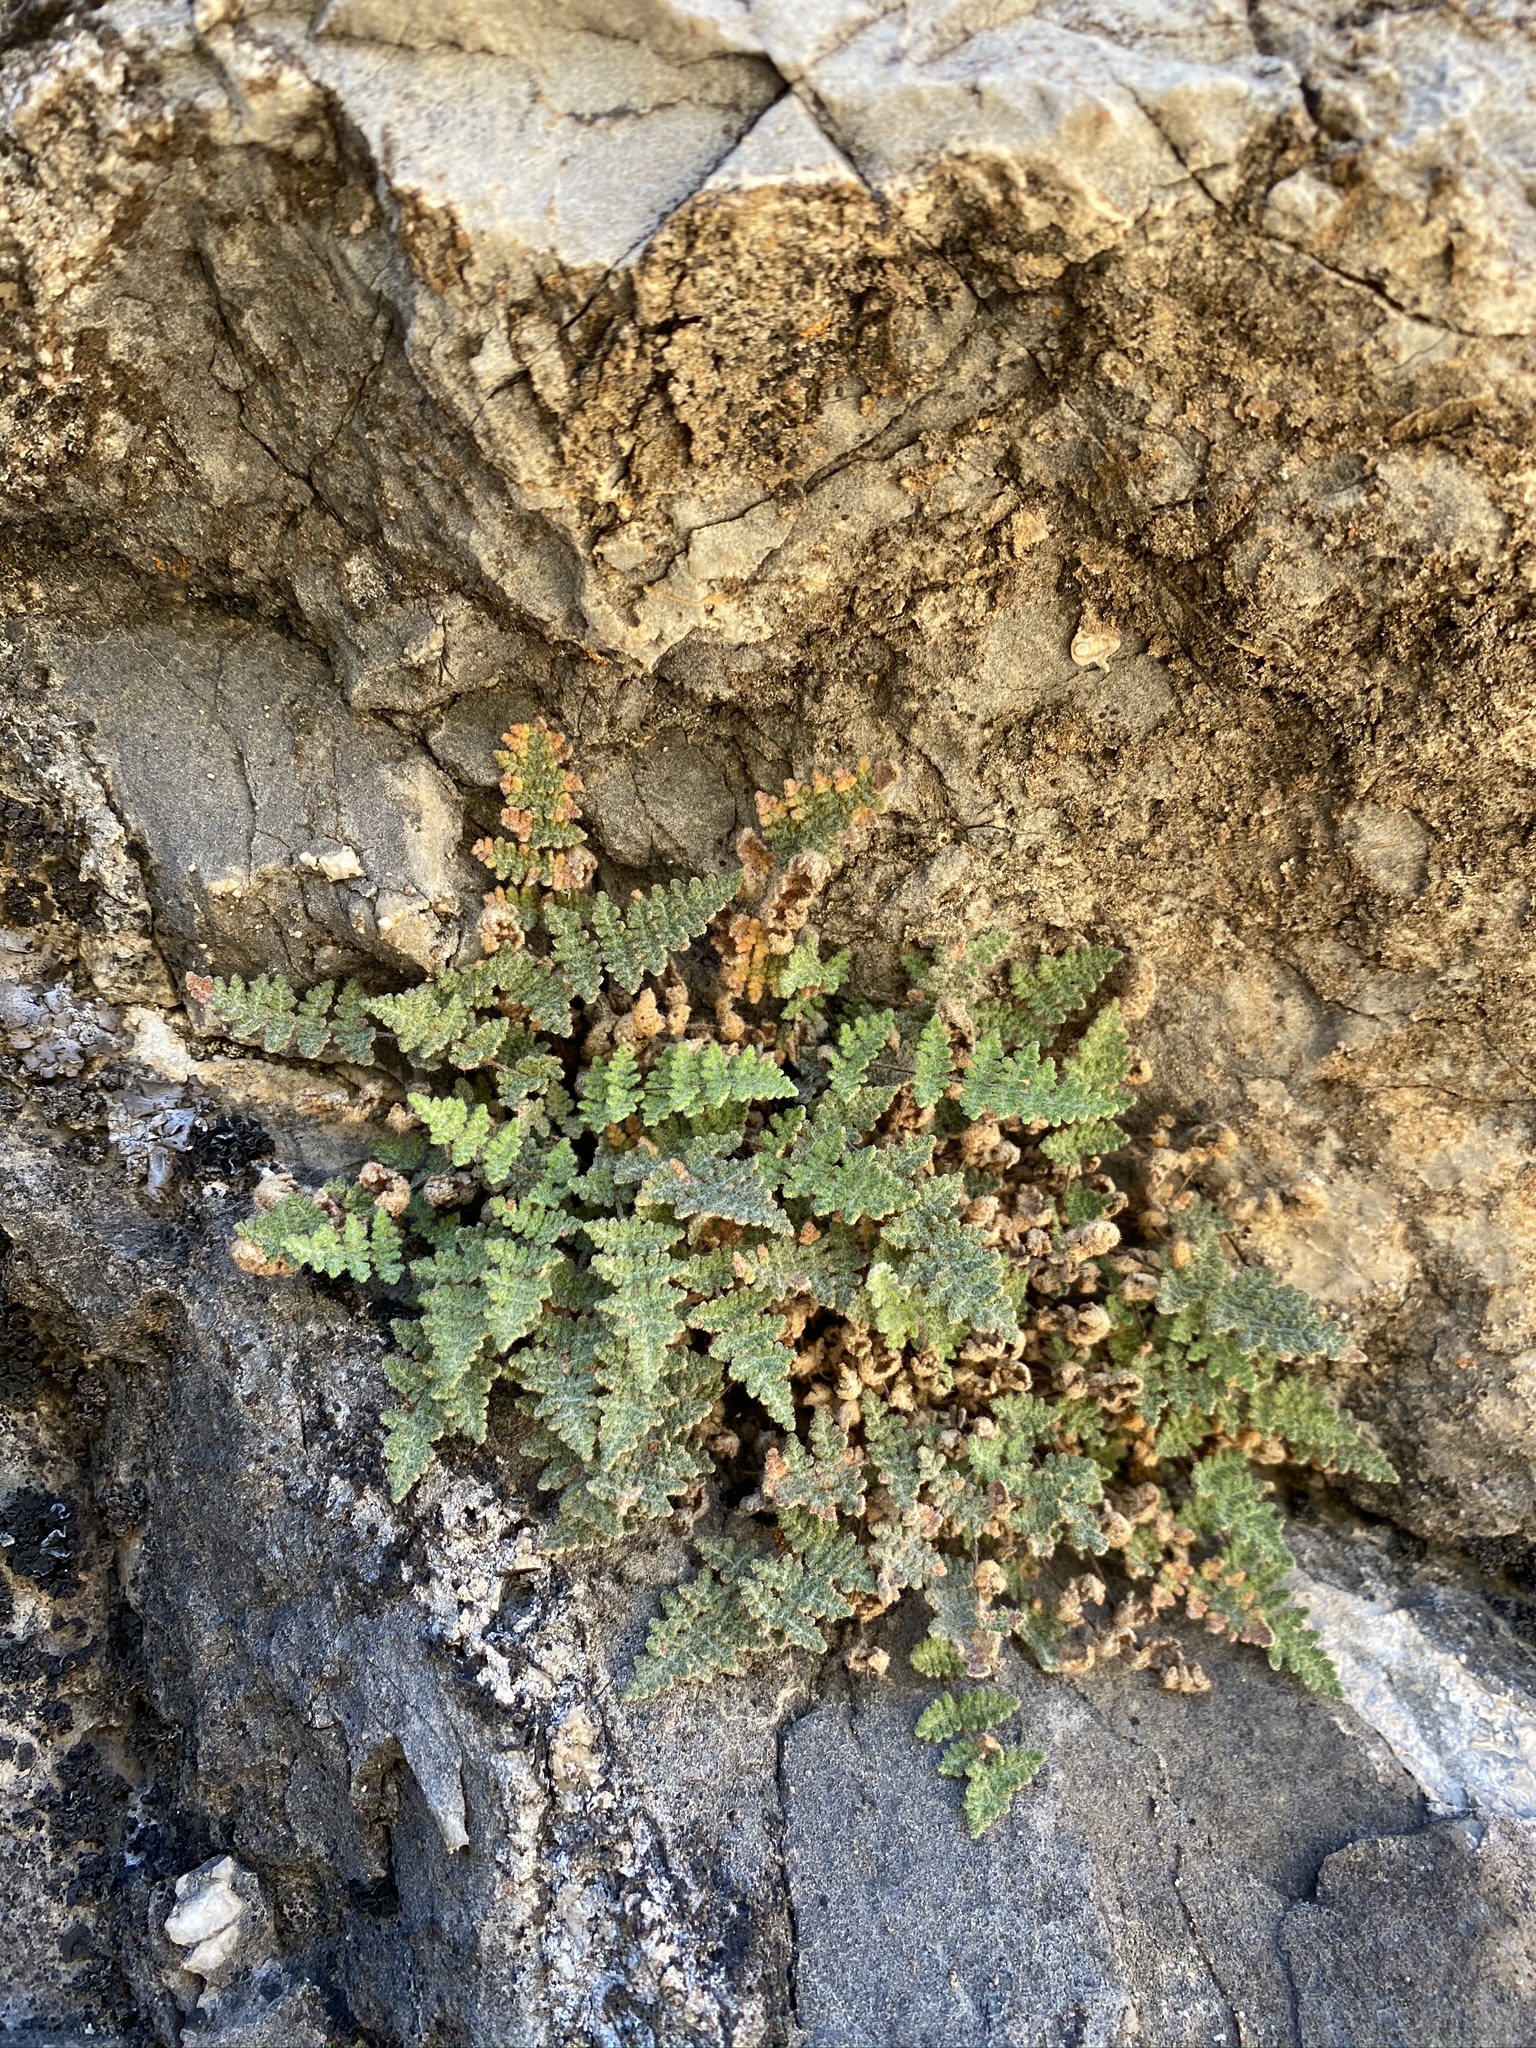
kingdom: Plantae
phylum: Tracheophyta
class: Polypodiopsida
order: Polypodiales
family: Pteridaceae
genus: Myriopteris
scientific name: Myriopteris gracilis
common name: Fee's lip fern
